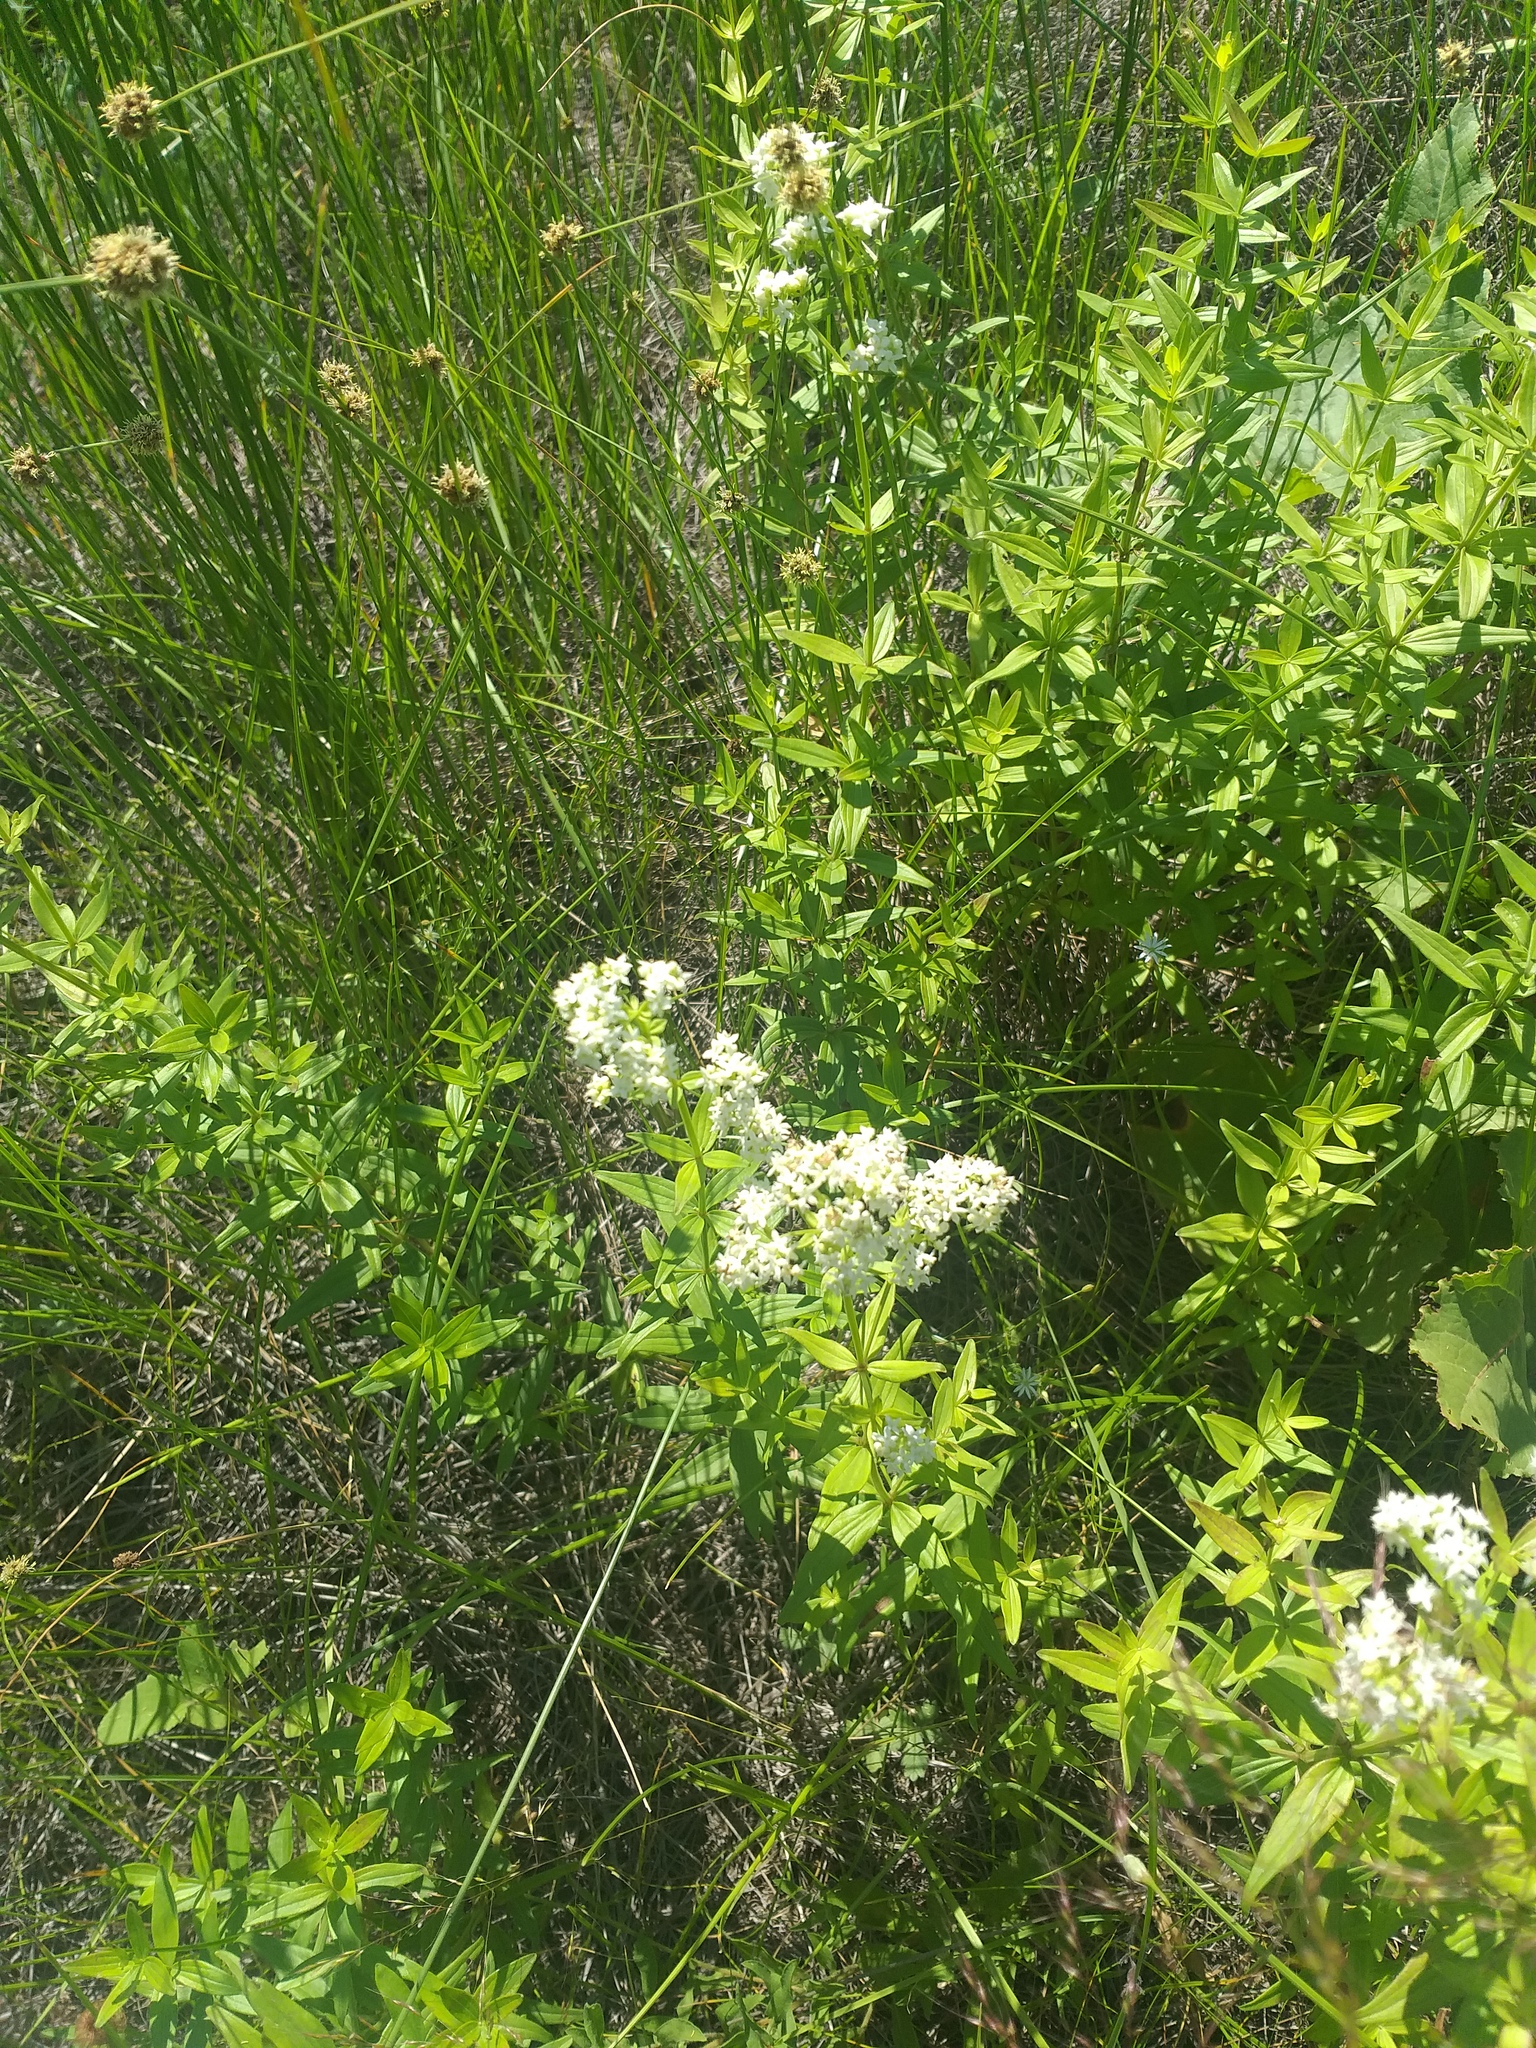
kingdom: Plantae
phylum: Tracheophyta
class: Magnoliopsida
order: Gentianales
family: Rubiaceae
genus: Galium
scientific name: Galium rubioides
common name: European bedstraw
